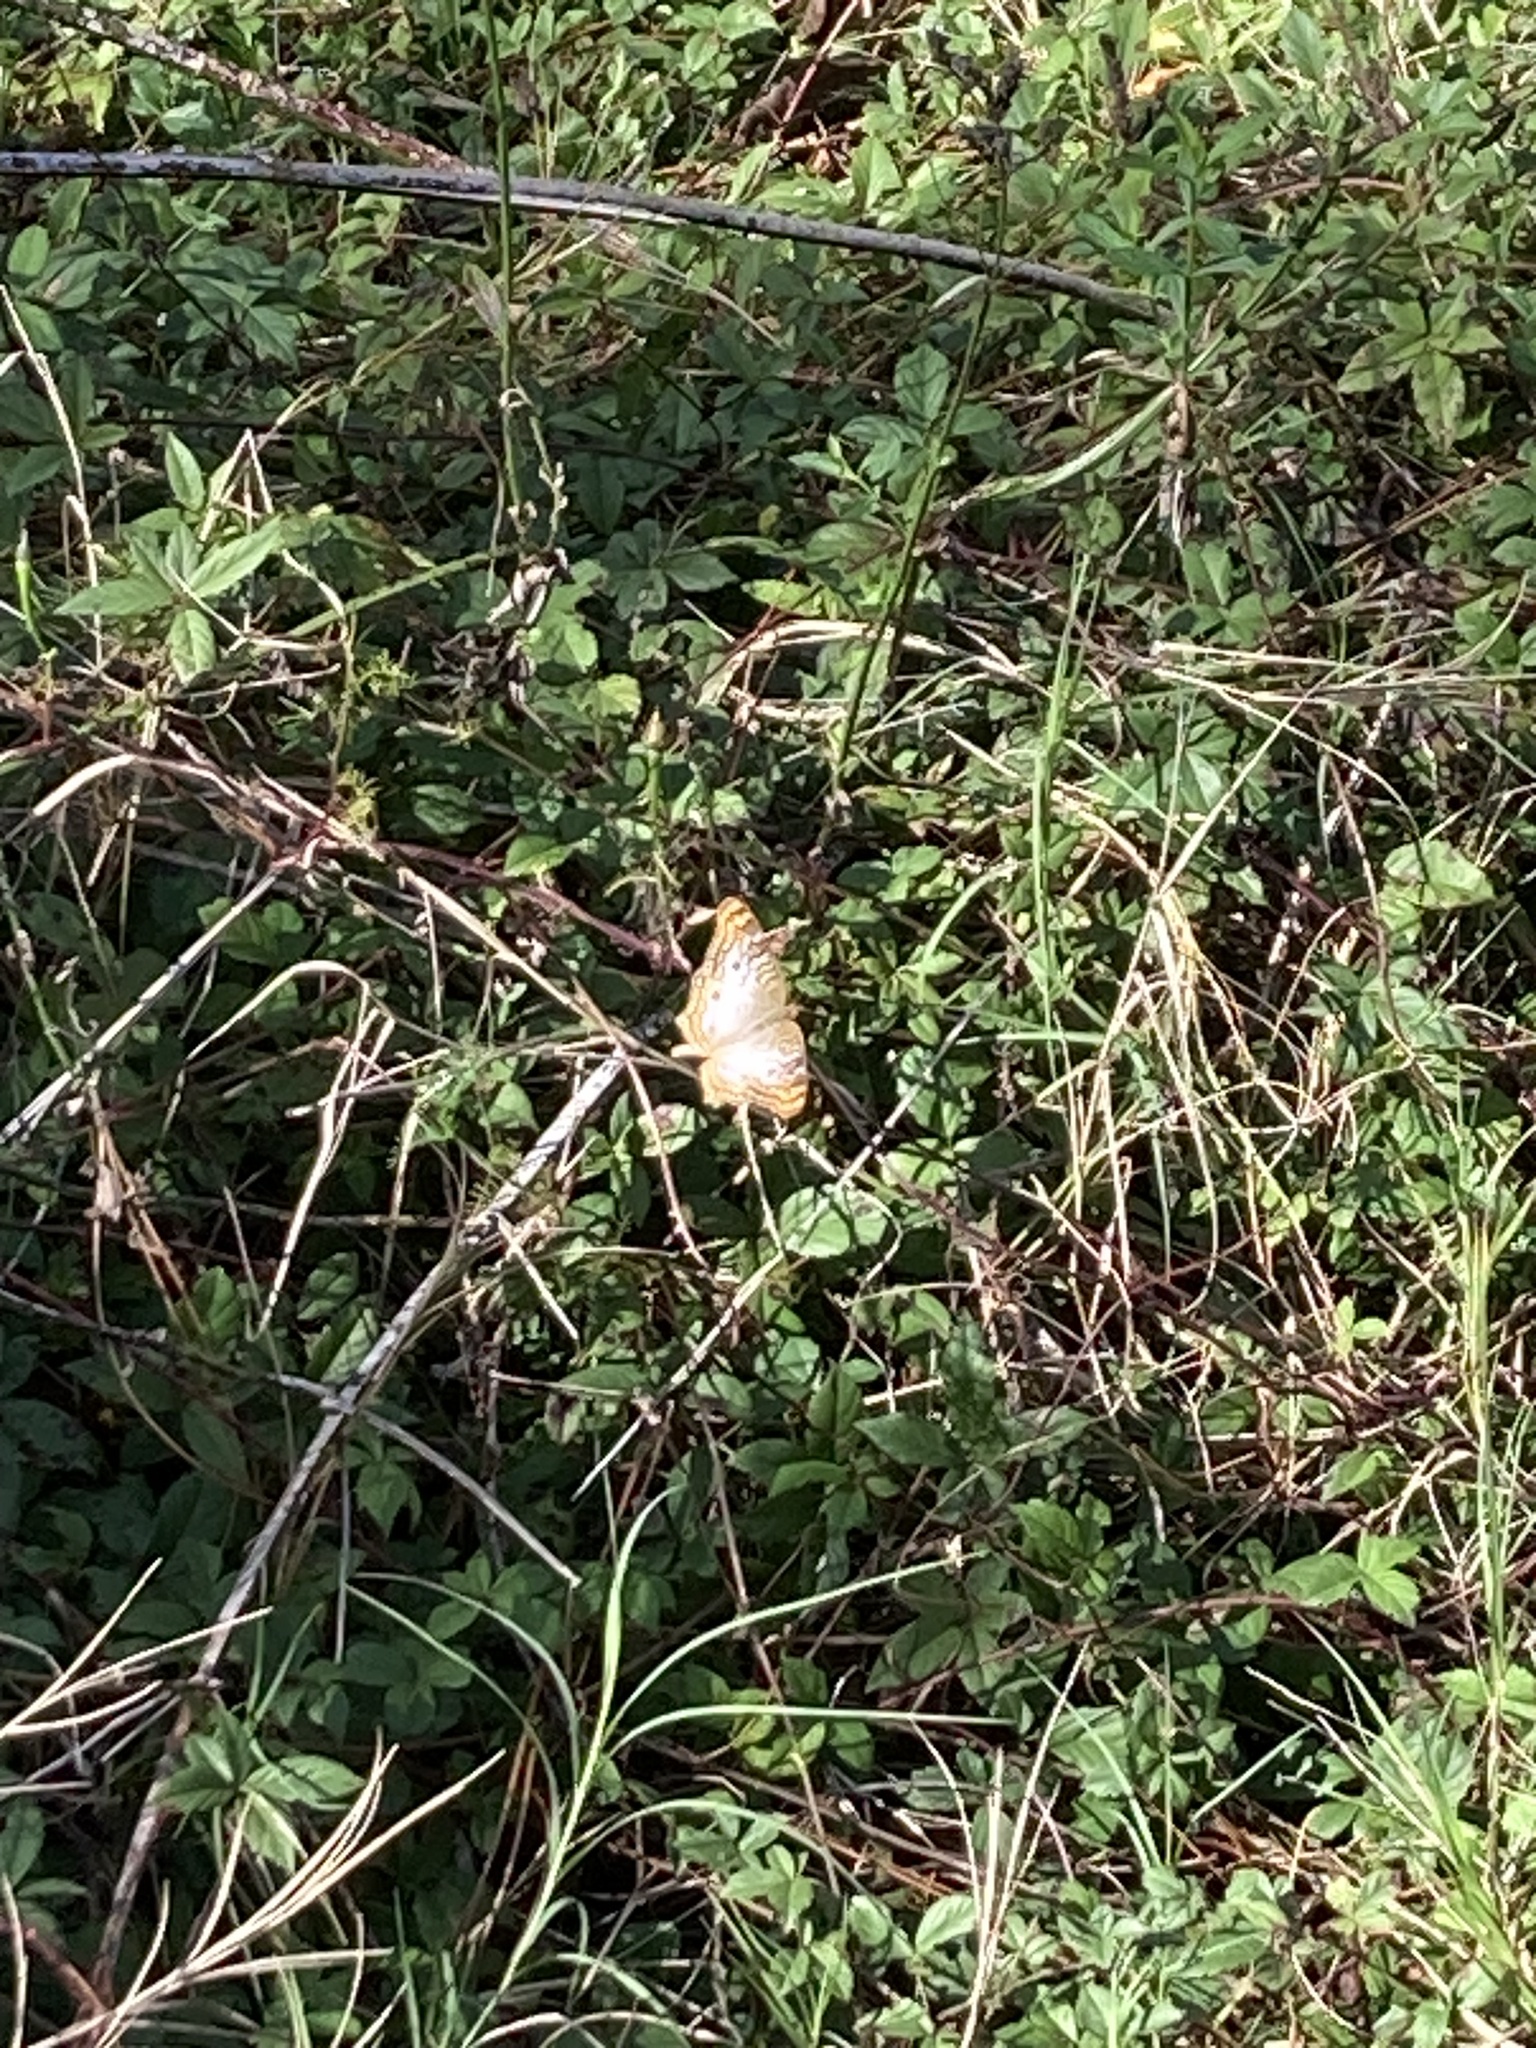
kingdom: Animalia
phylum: Arthropoda
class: Insecta
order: Lepidoptera
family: Nymphalidae
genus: Anartia
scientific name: Anartia jatrophae
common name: White peacock
